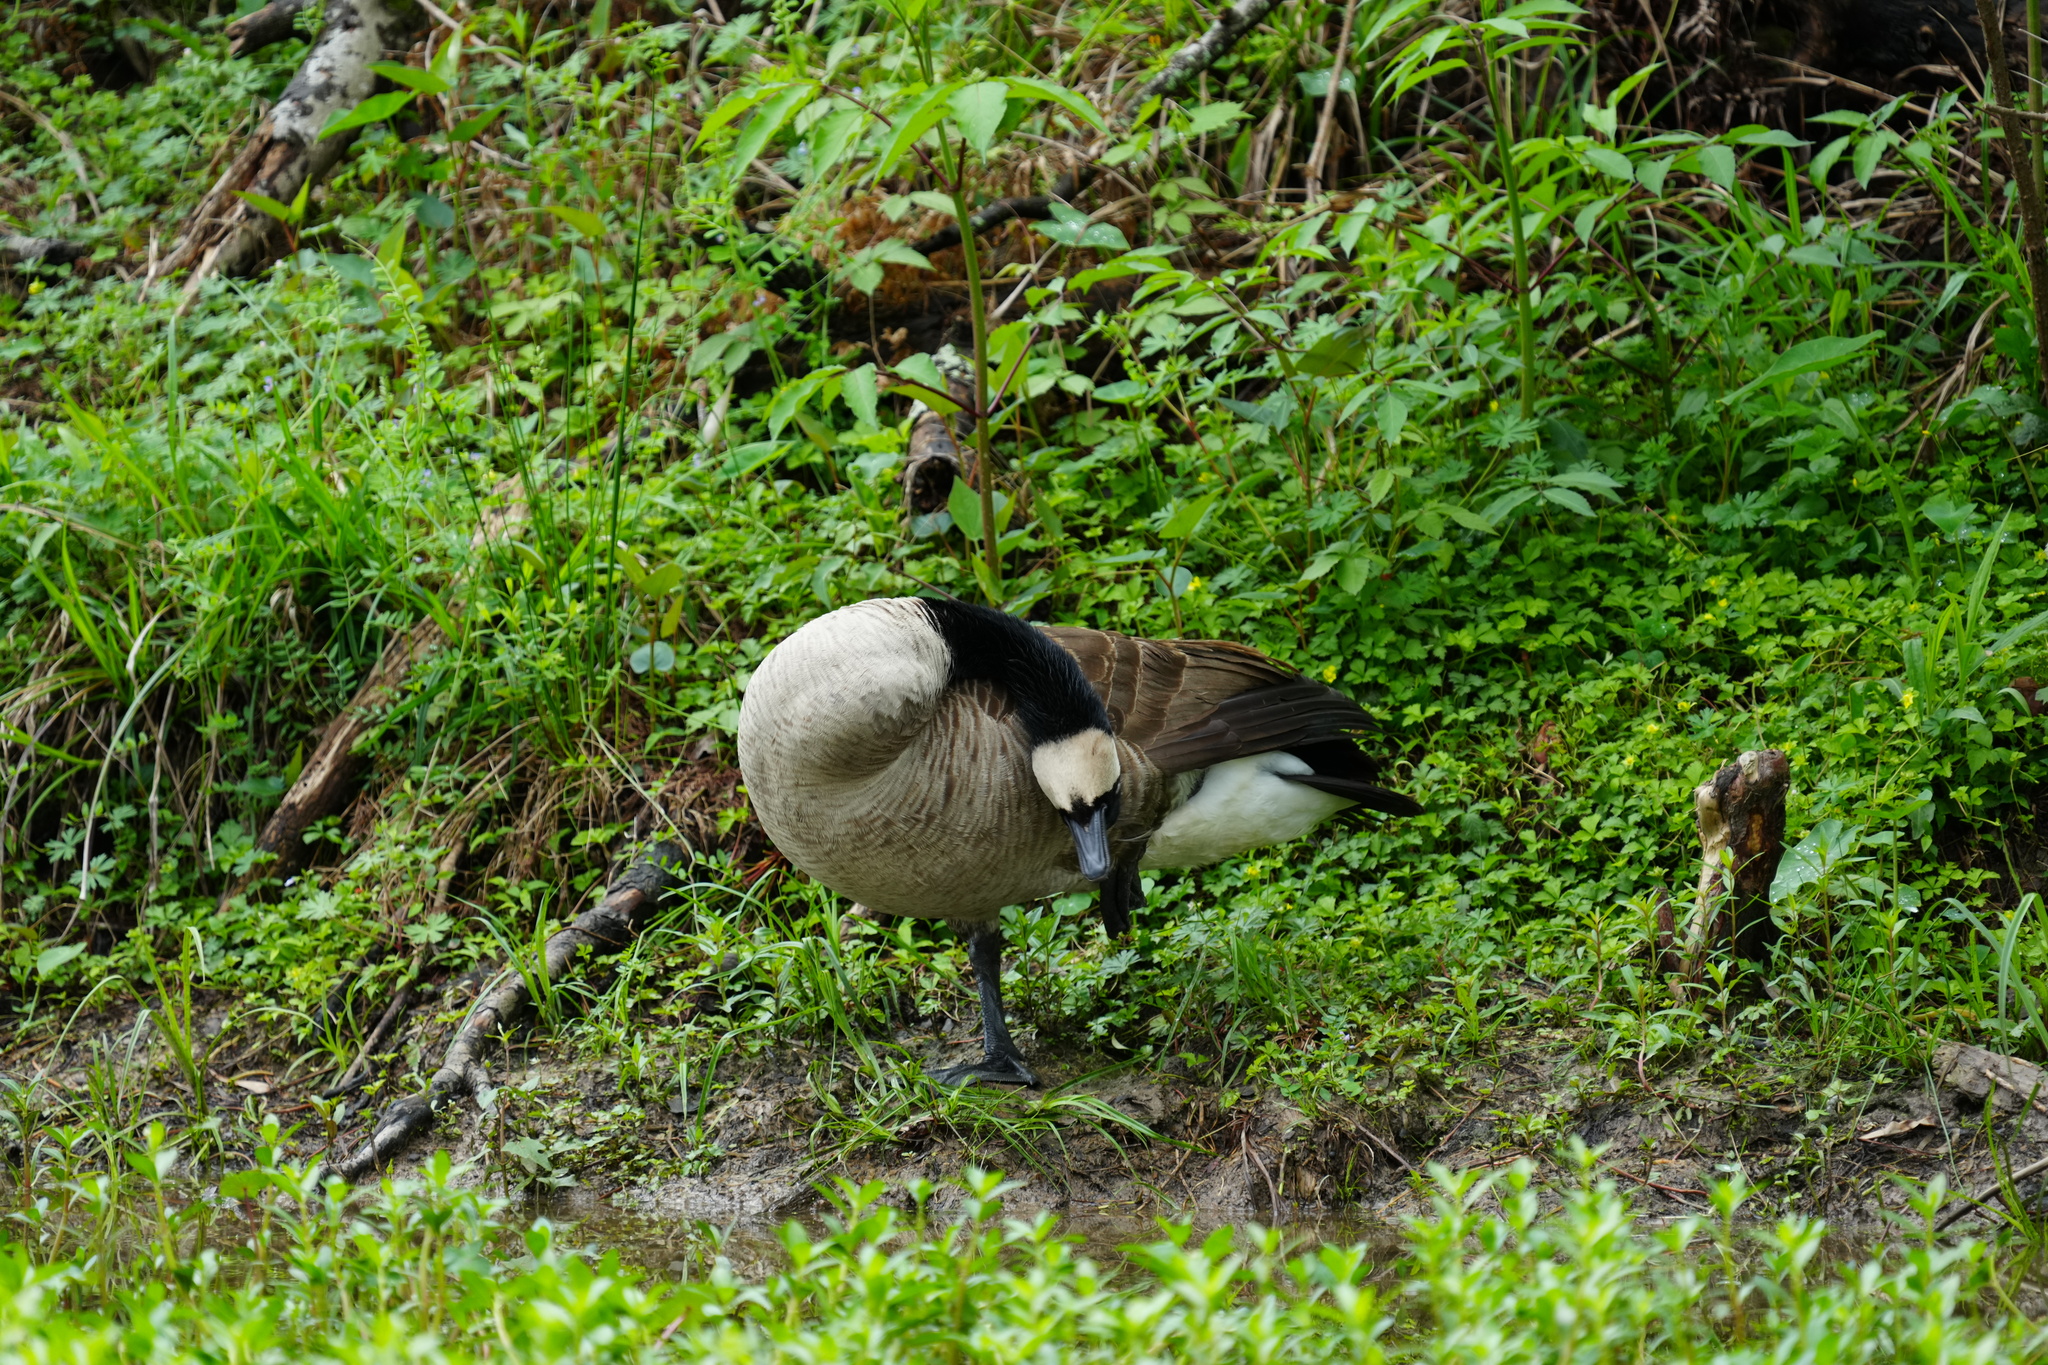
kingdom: Animalia
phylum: Chordata
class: Aves
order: Anseriformes
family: Anatidae
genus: Branta
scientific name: Branta canadensis
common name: Canada goose
